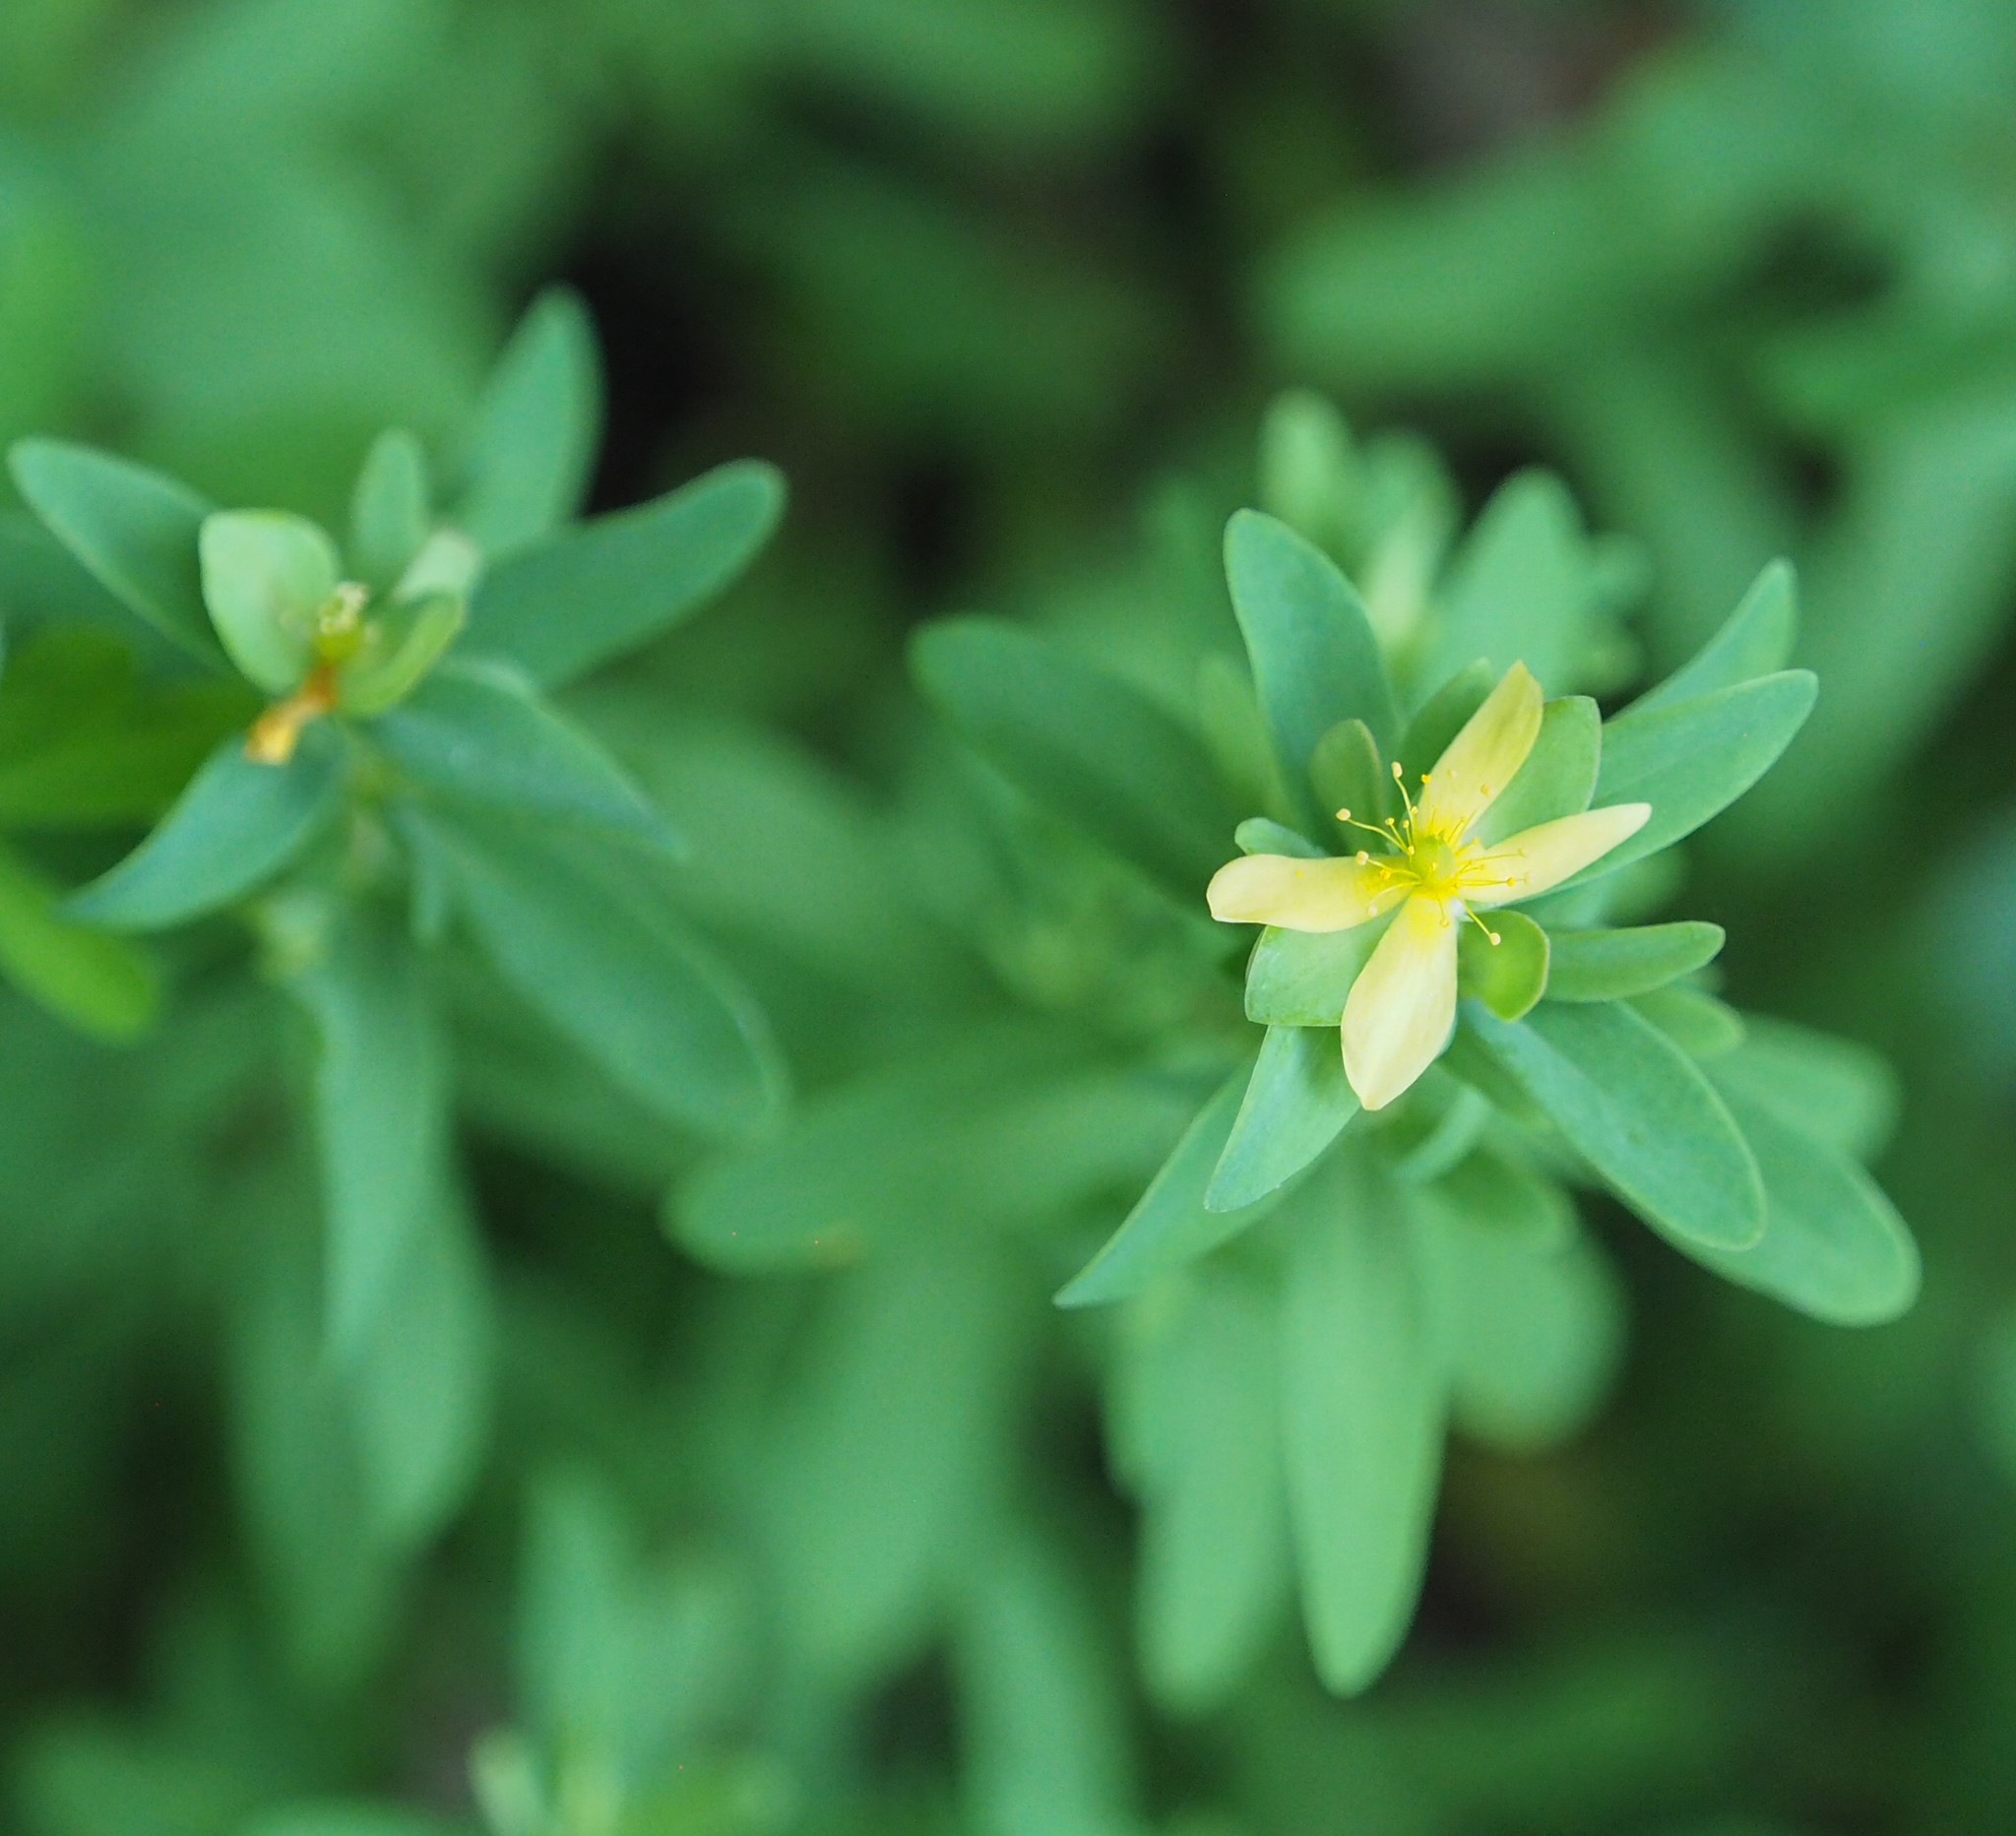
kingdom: Plantae
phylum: Tracheophyta
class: Magnoliopsida
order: Malpighiales
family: Hypericaceae
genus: Hypericum
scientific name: Hypericum hypericoides
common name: St. andrew's cross
